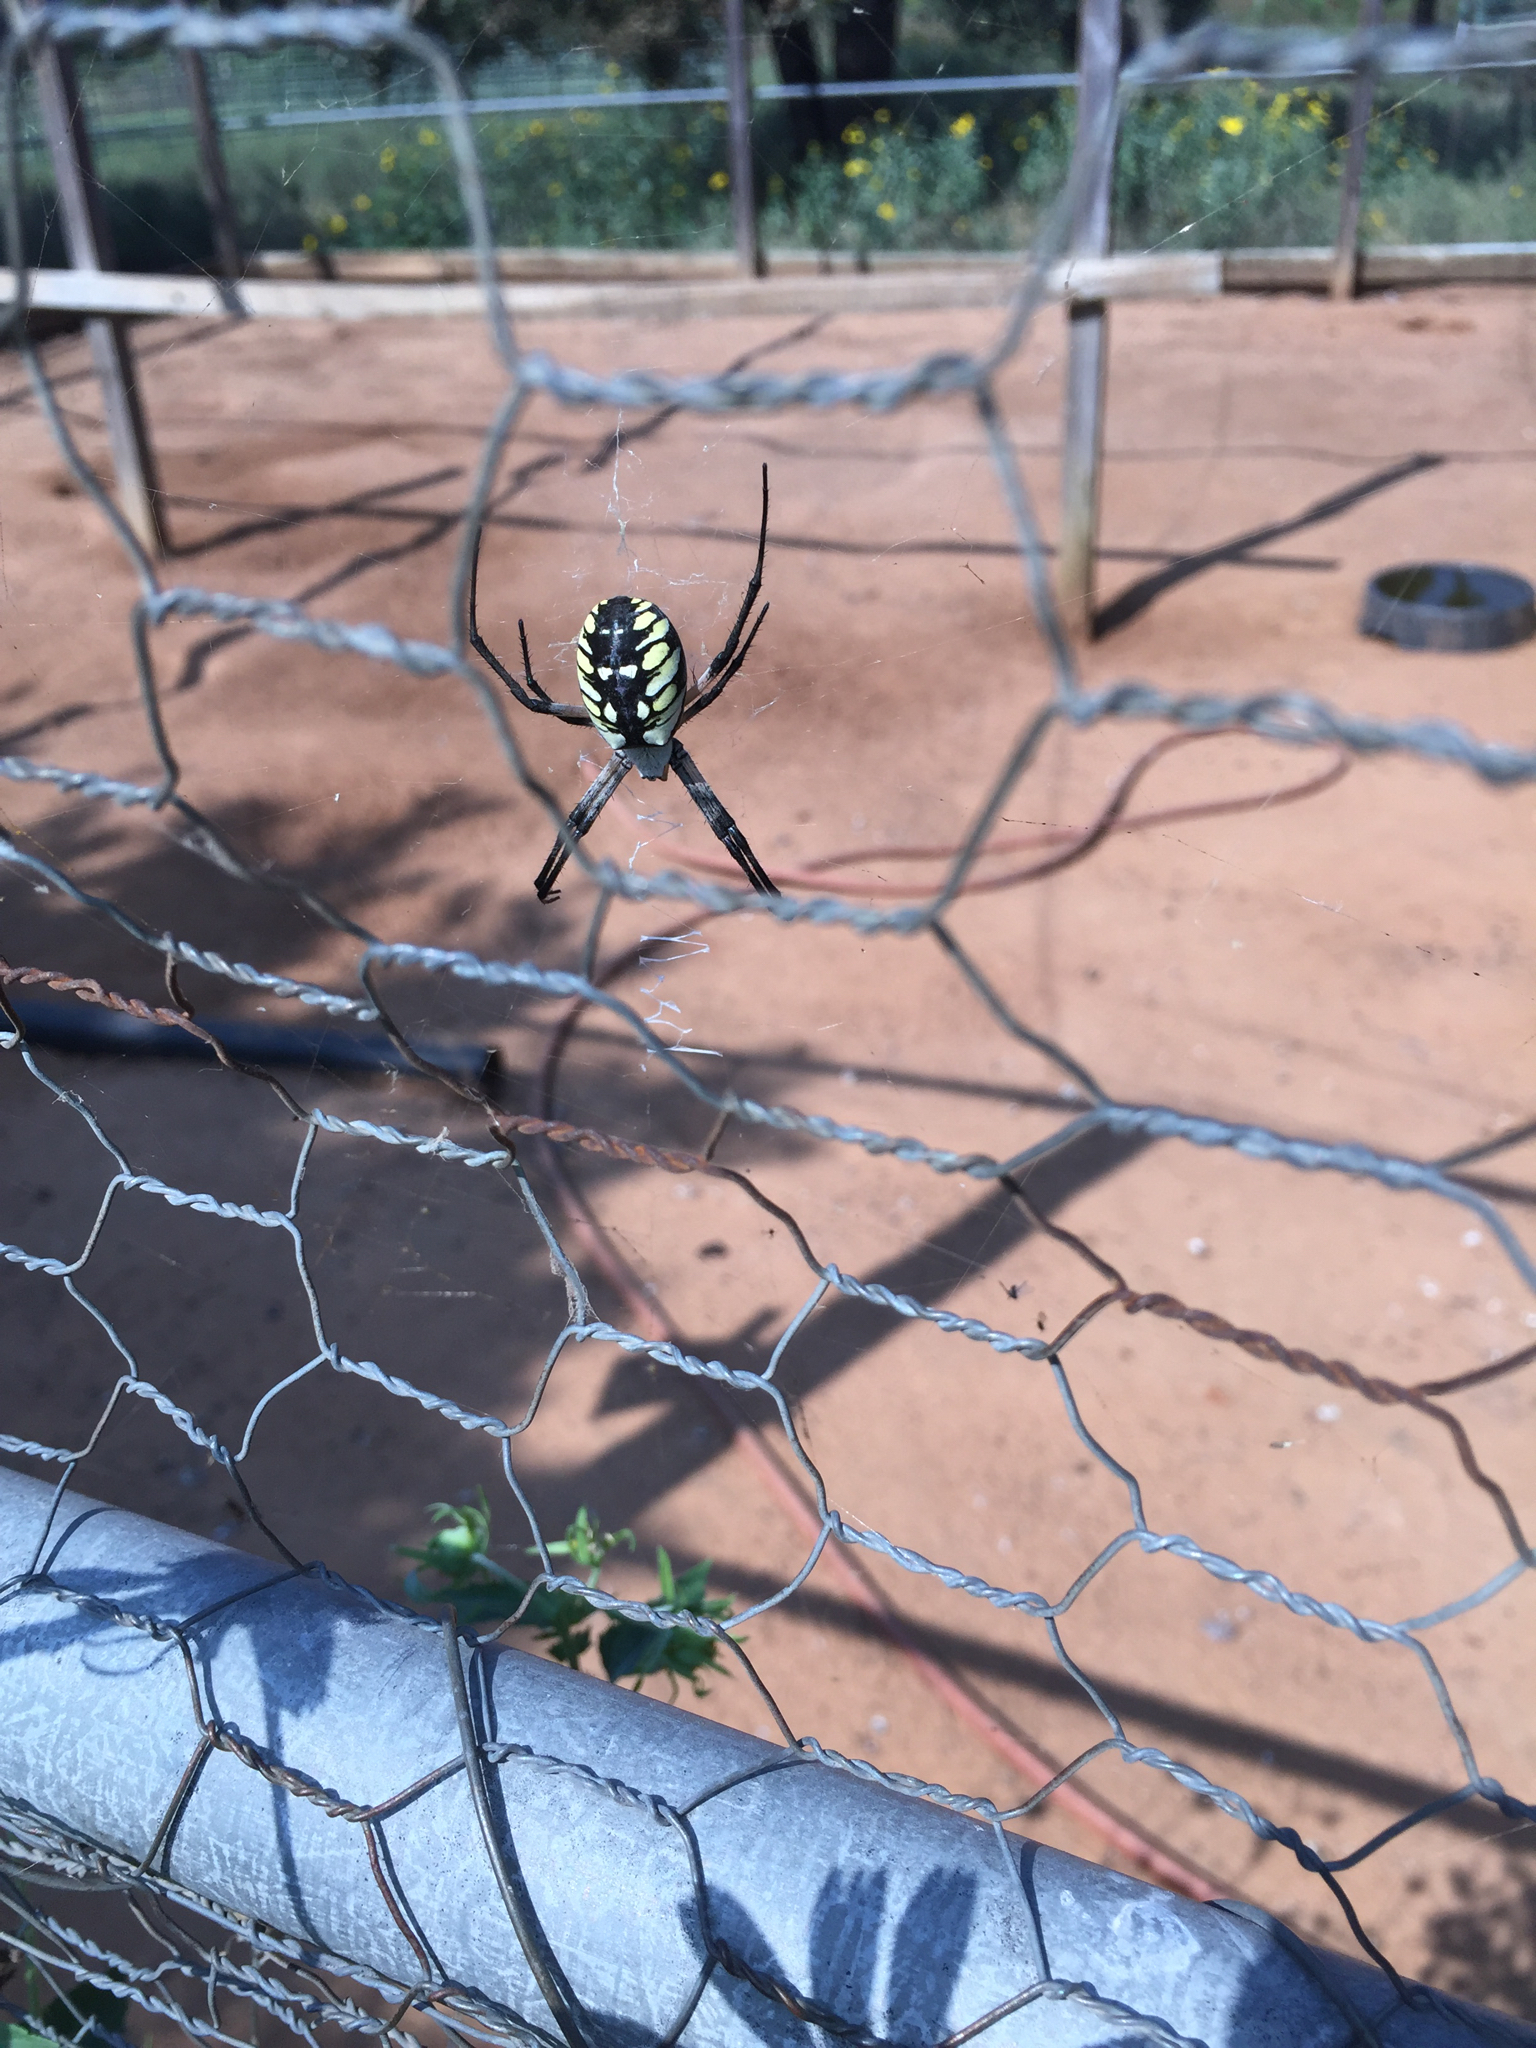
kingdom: Animalia
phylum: Arthropoda
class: Arachnida
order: Araneae
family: Araneidae
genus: Argiope
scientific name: Argiope aurantia
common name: Orb weavers
